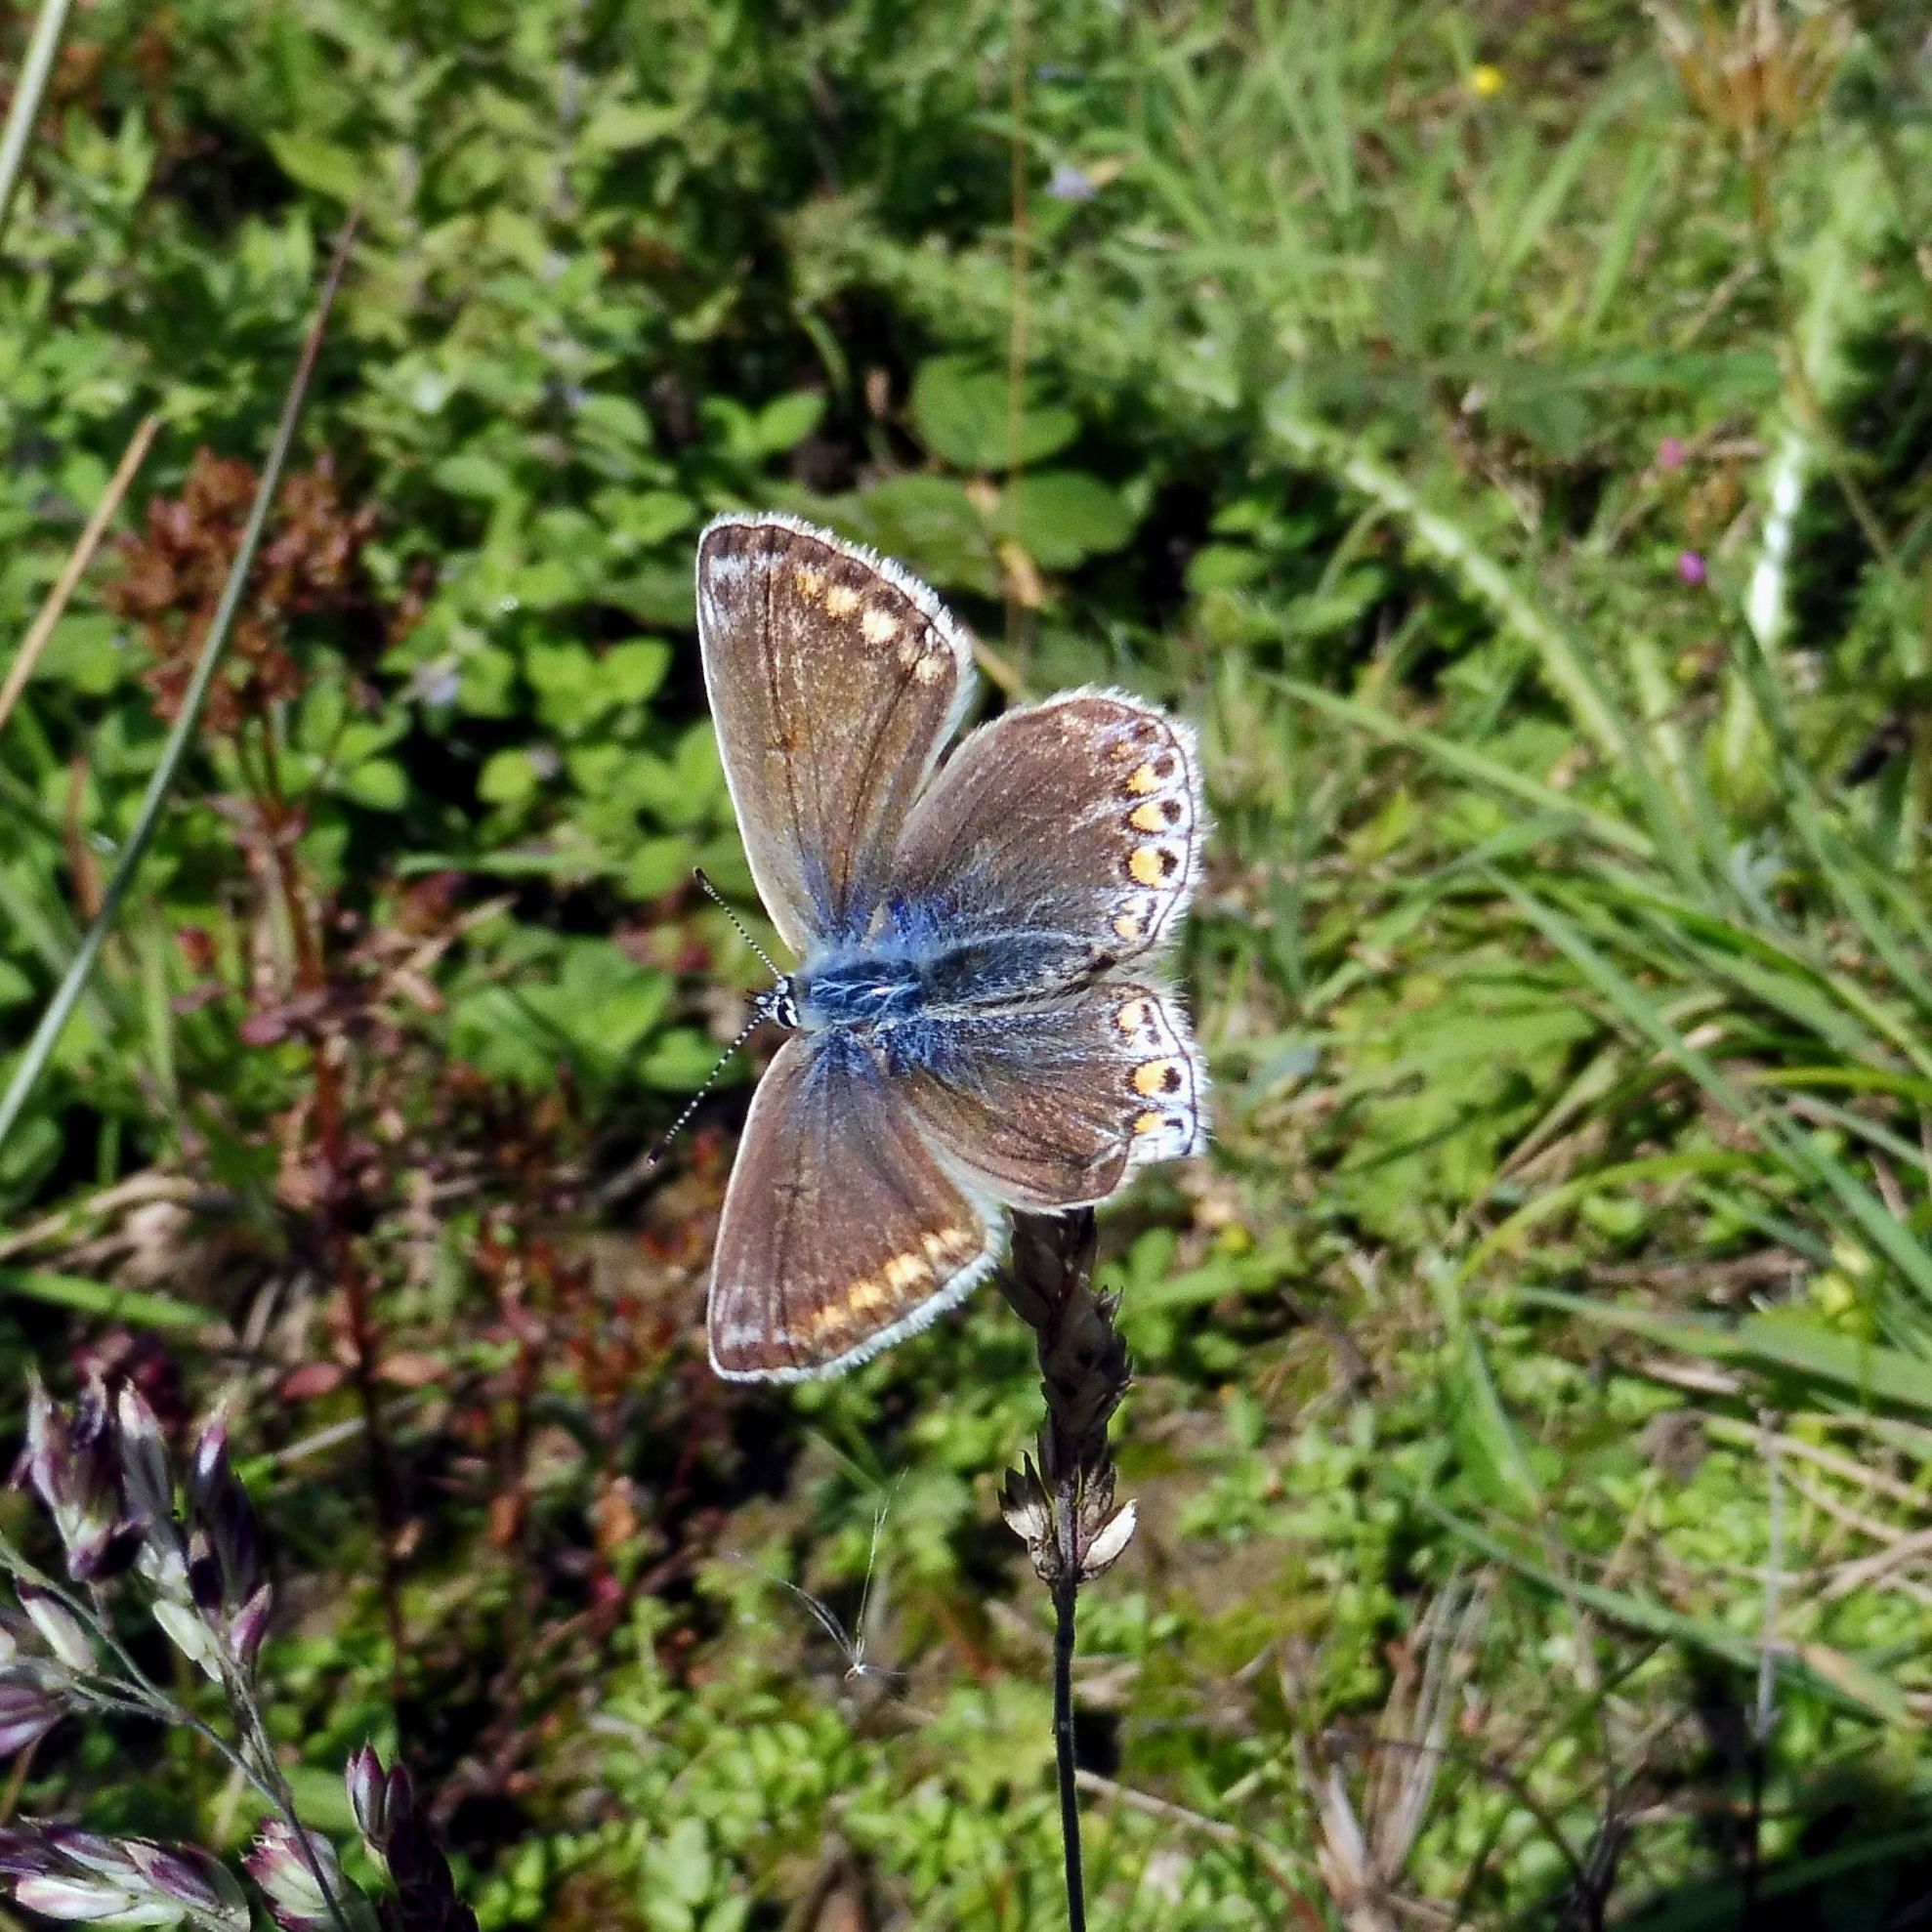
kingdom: Animalia
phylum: Arthropoda
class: Insecta
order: Lepidoptera
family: Lycaenidae
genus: Polyommatus
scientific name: Polyommatus icarus
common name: Common blue
